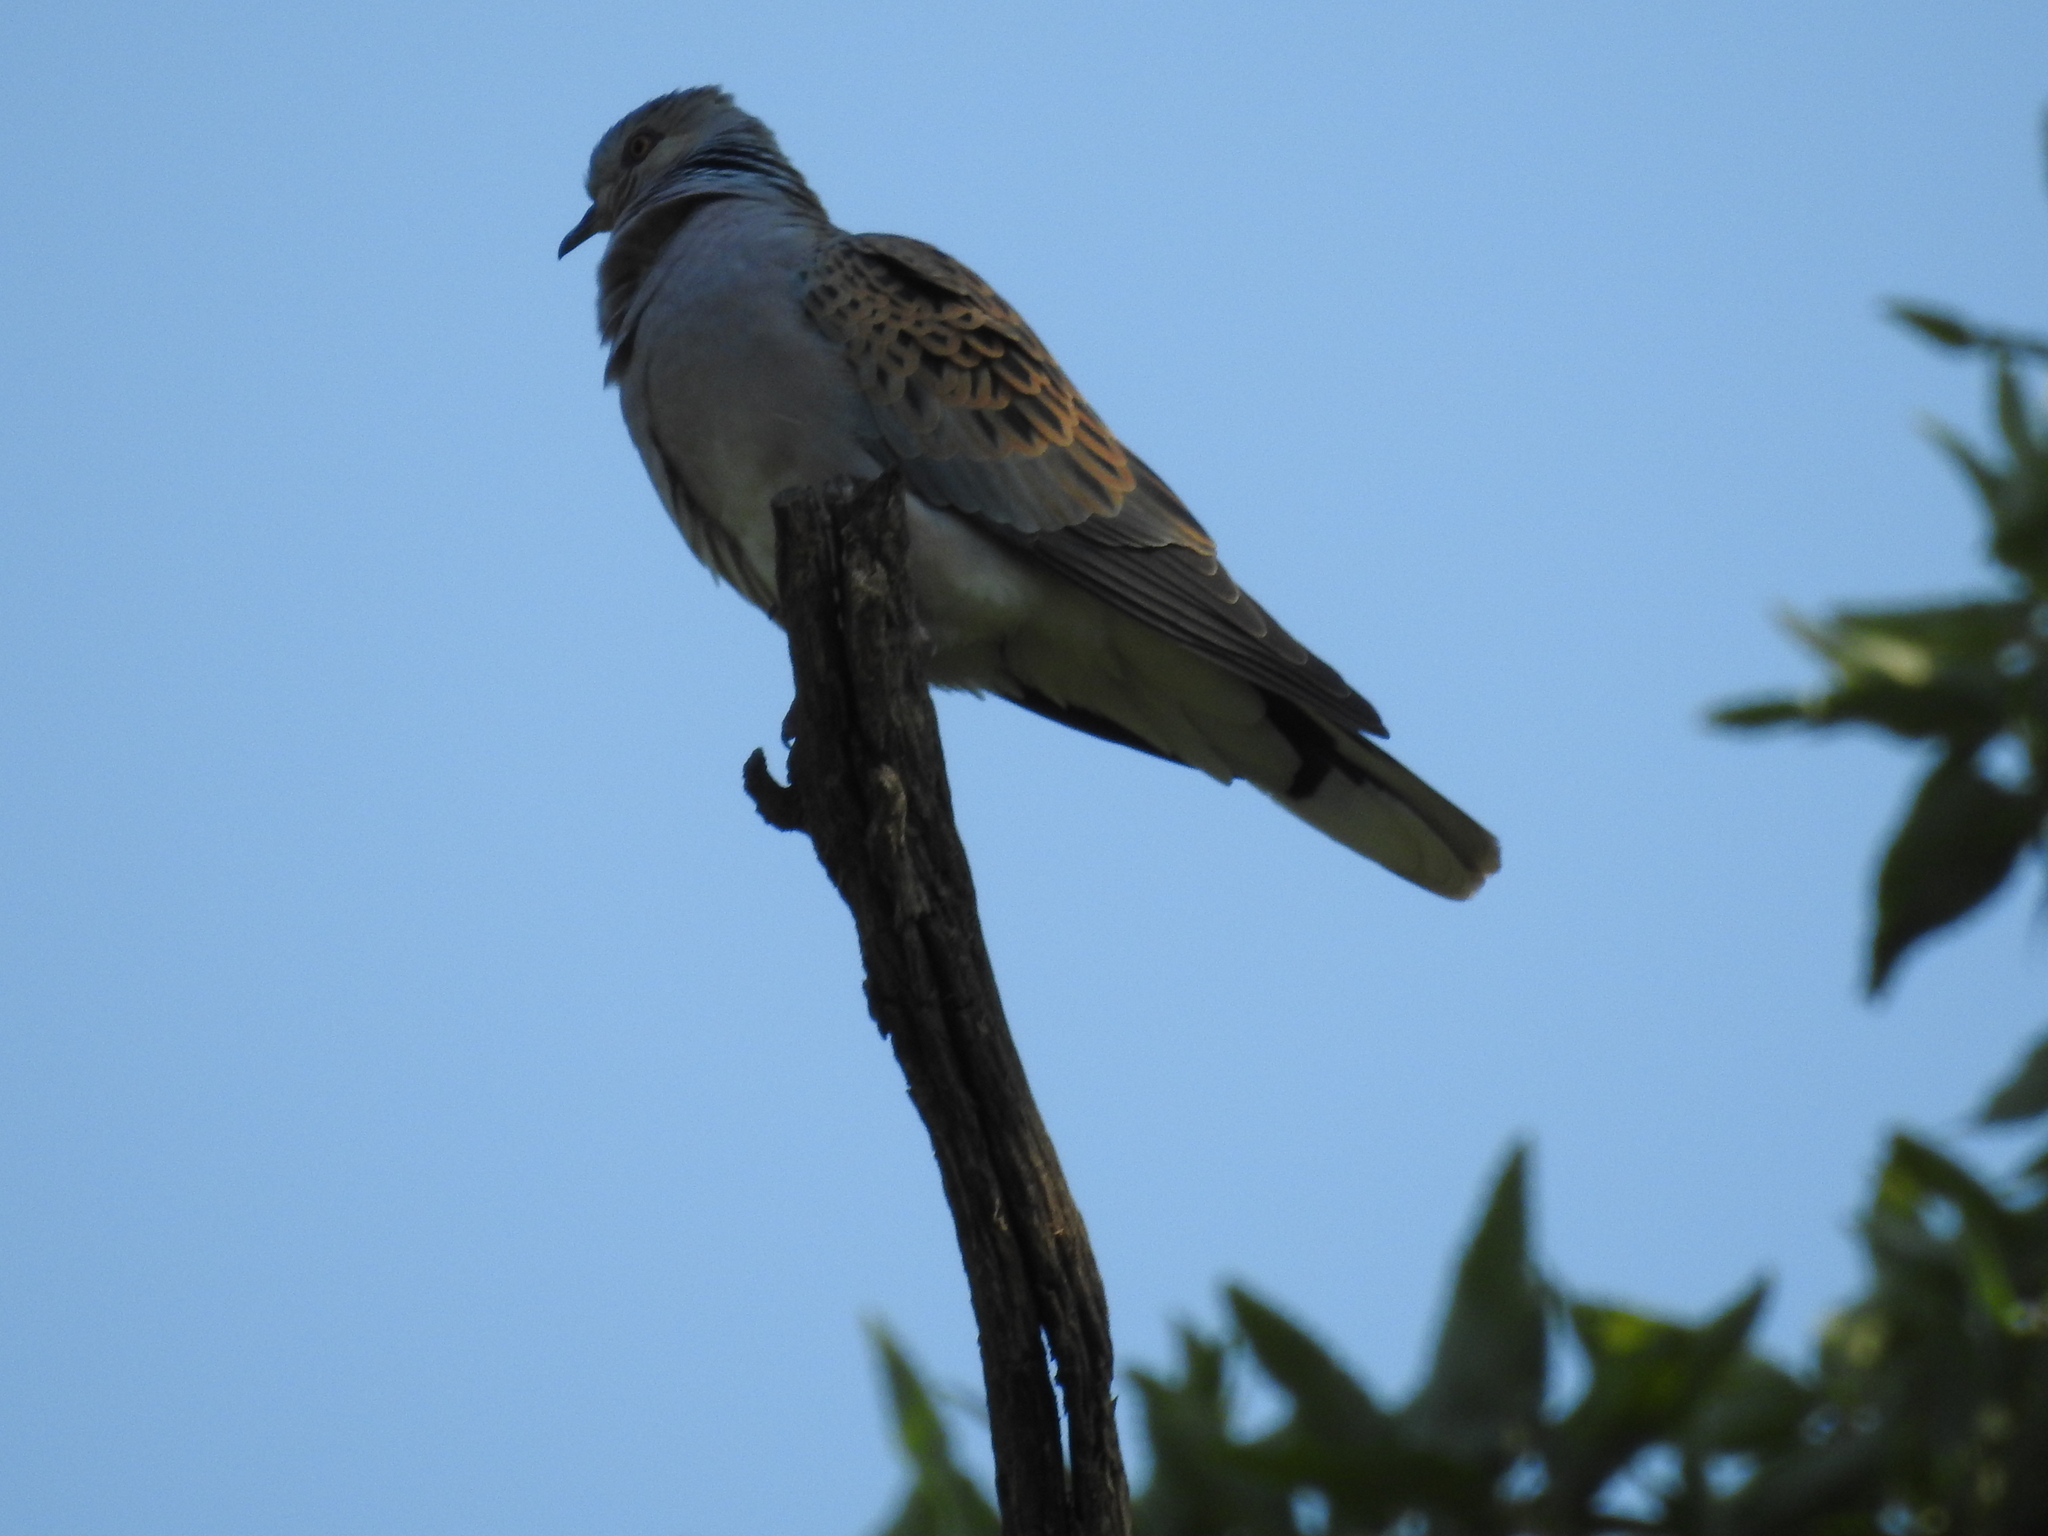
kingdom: Animalia
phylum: Chordata
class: Aves
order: Columbiformes
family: Columbidae
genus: Streptopelia
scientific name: Streptopelia turtur
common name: European turtle dove
